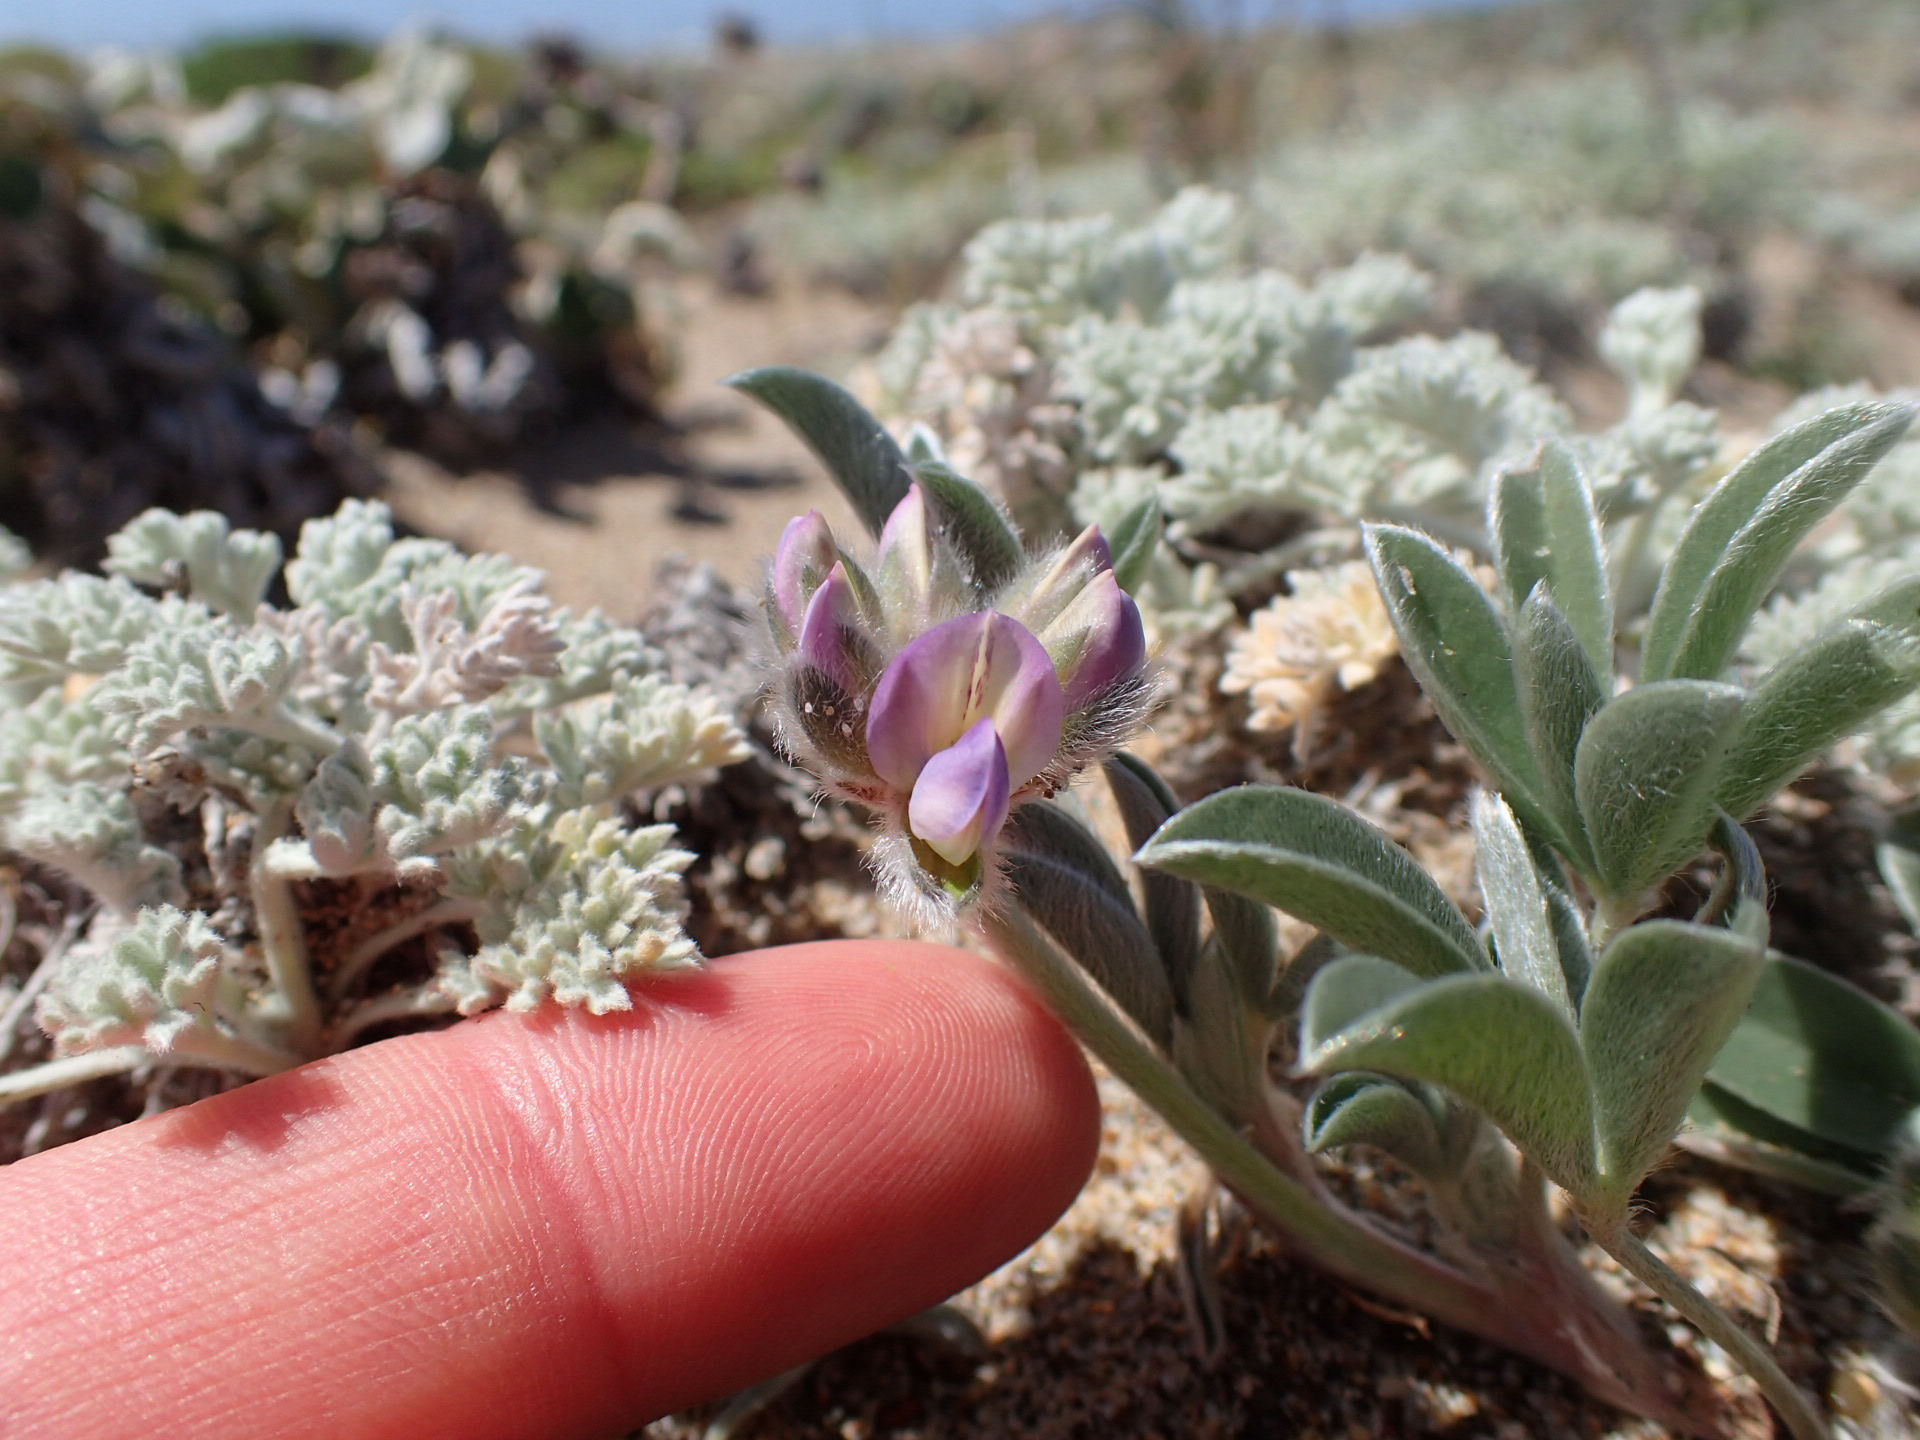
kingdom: Plantae
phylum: Tracheophyta
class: Magnoliopsida
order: Fabales
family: Fabaceae
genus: Lupinus
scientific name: Lupinus tidestromii
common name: Clover lupine
